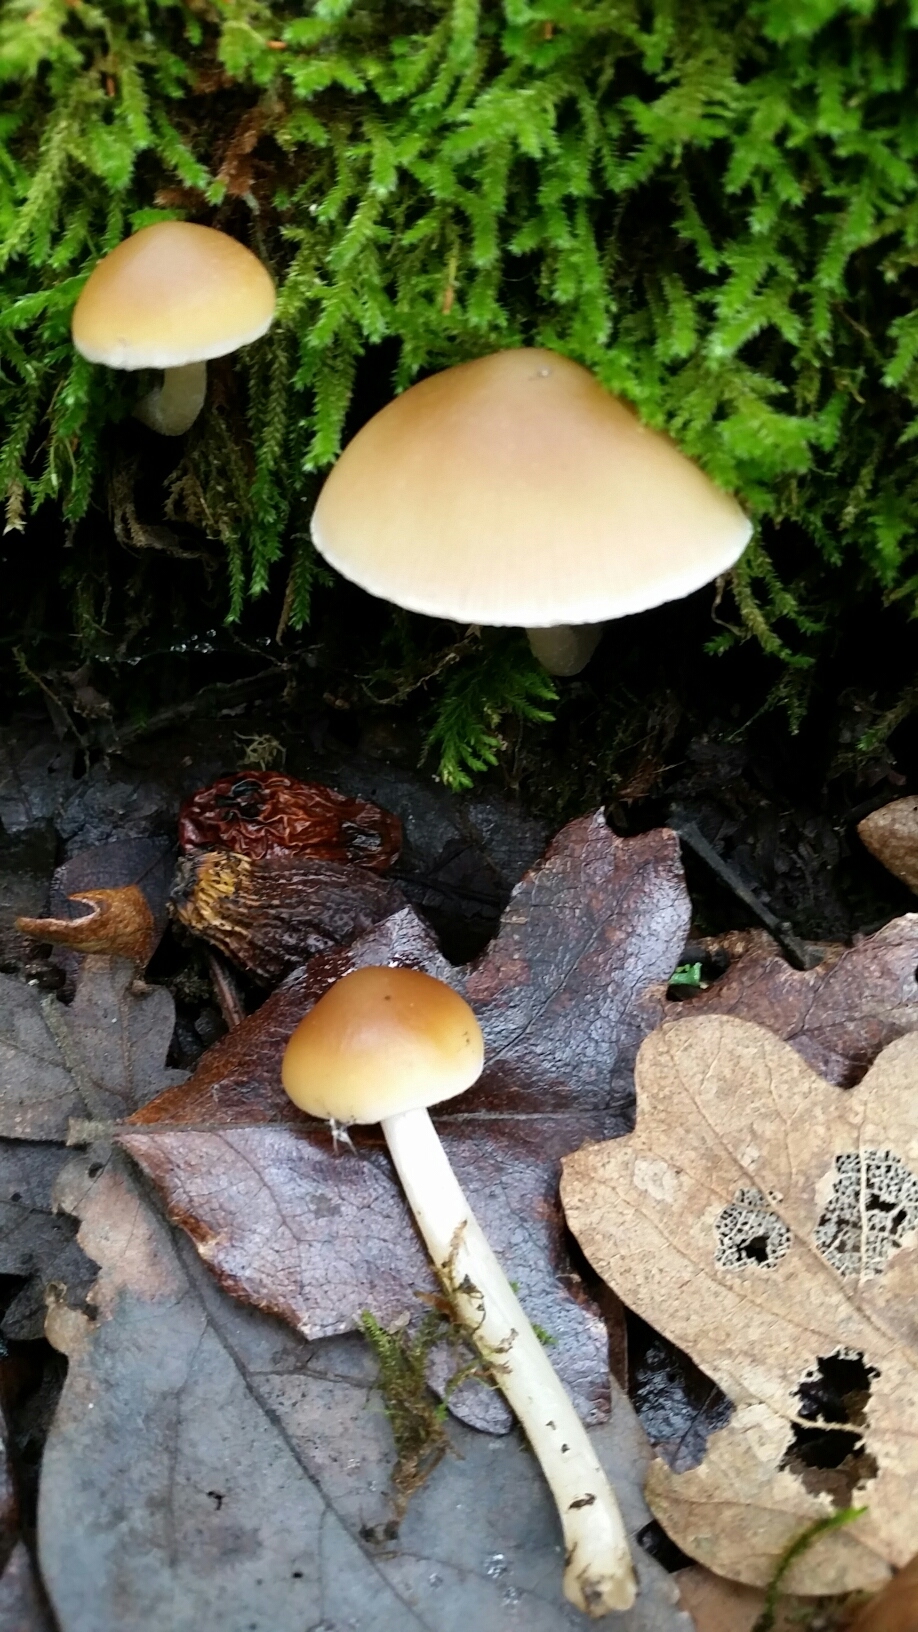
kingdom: Fungi
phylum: Basidiomycota
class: Agaricomycetes
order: Agaricales
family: Psathyrellaceae
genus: Psathyrella
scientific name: Psathyrella piluliformis
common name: Common stump brittlestem
